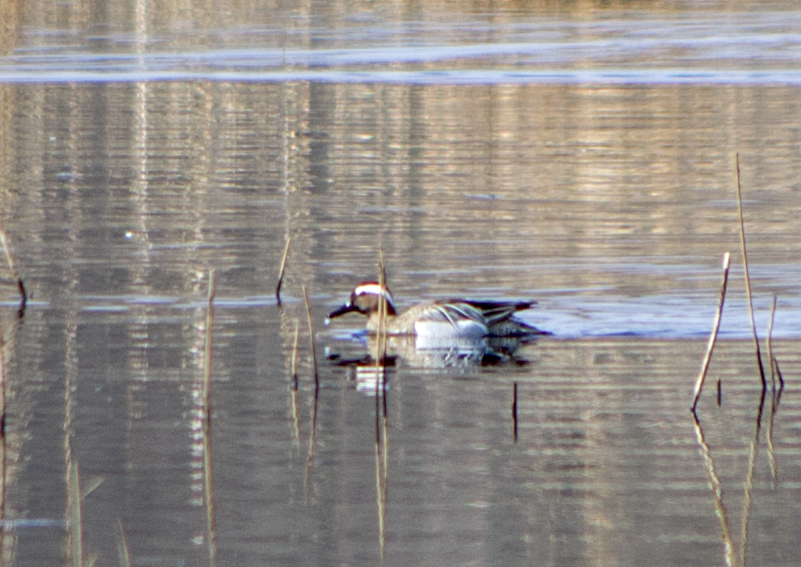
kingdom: Animalia
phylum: Chordata
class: Aves
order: Anseriformes
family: Anatidae
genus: Spatula
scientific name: Spatula querquedula
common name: Garganey
